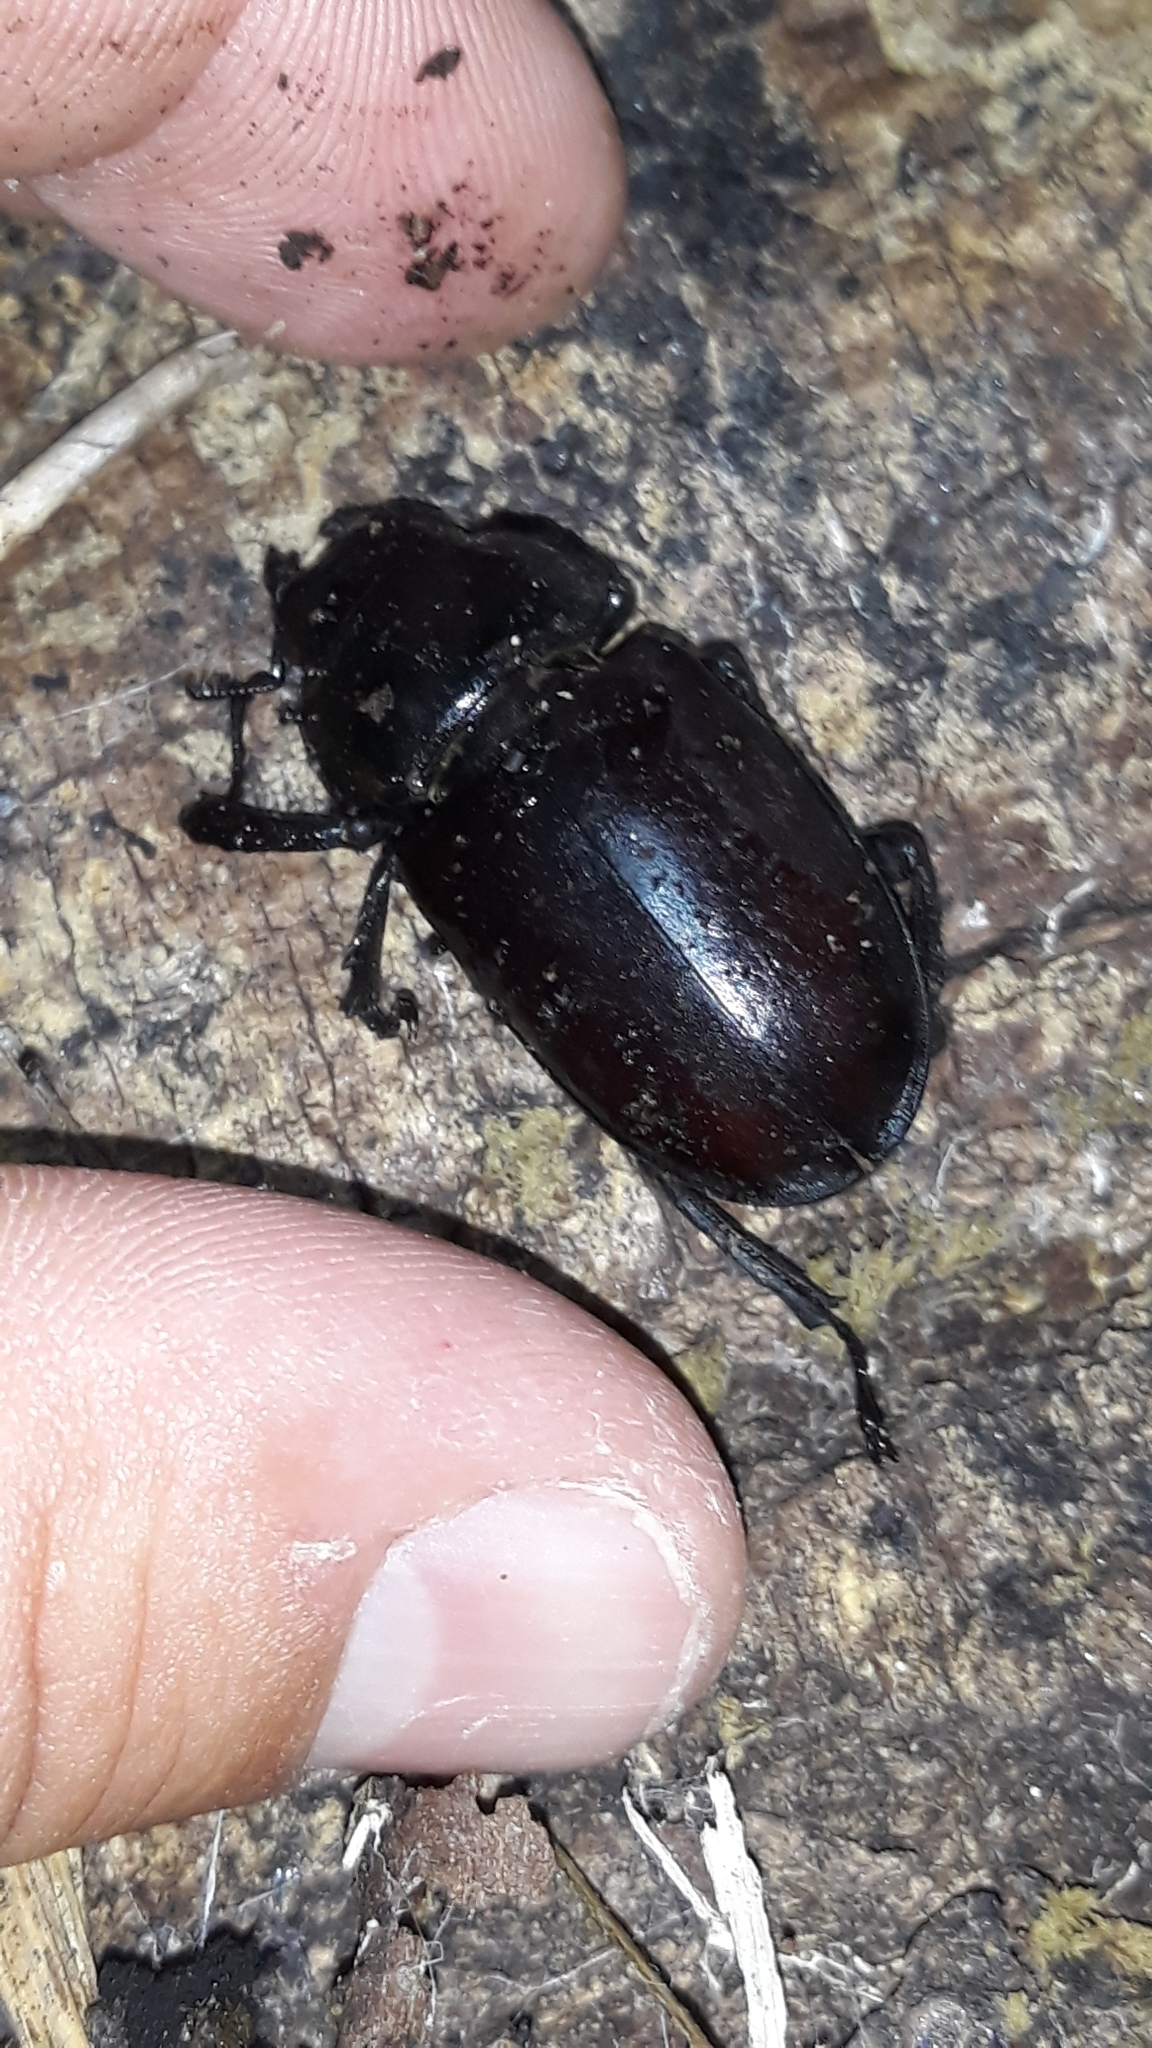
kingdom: Animalia
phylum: Arthropoda
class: Insecta
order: Coleoptera
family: Lucanidae
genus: Lucanus
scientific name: Lucanus cervus
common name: Stag beetle
